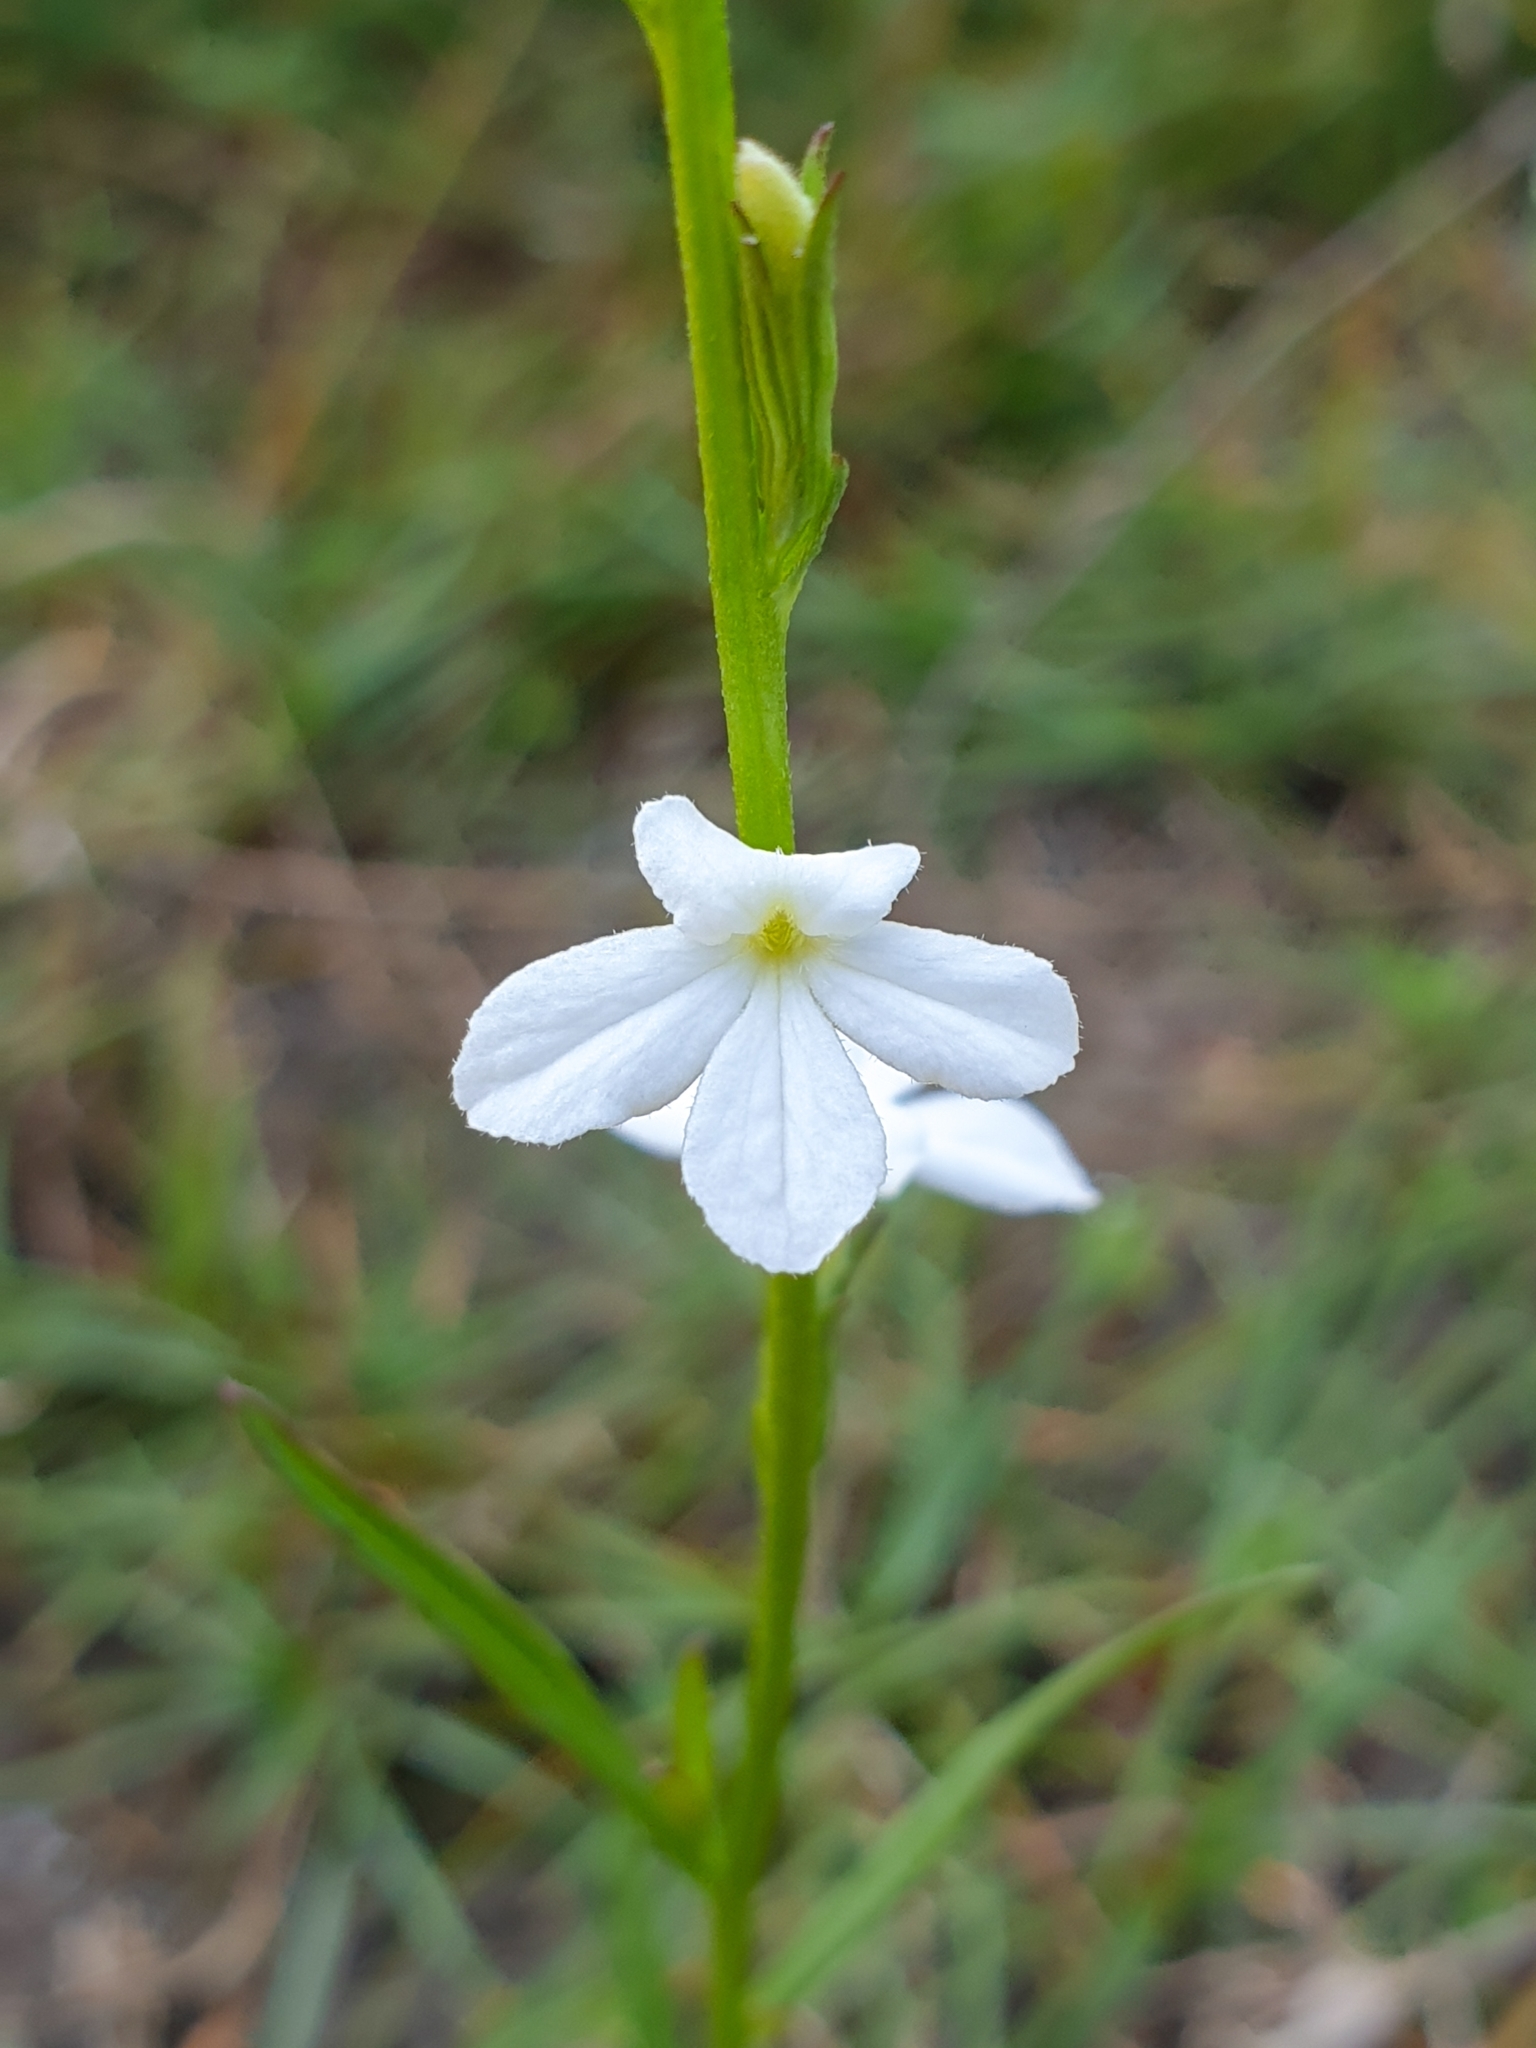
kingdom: Plantae
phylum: Tracheophyta
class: Magnoliopsida
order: Lamiales
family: Orobanchaceae
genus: Striga
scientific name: Striga angustifolia
